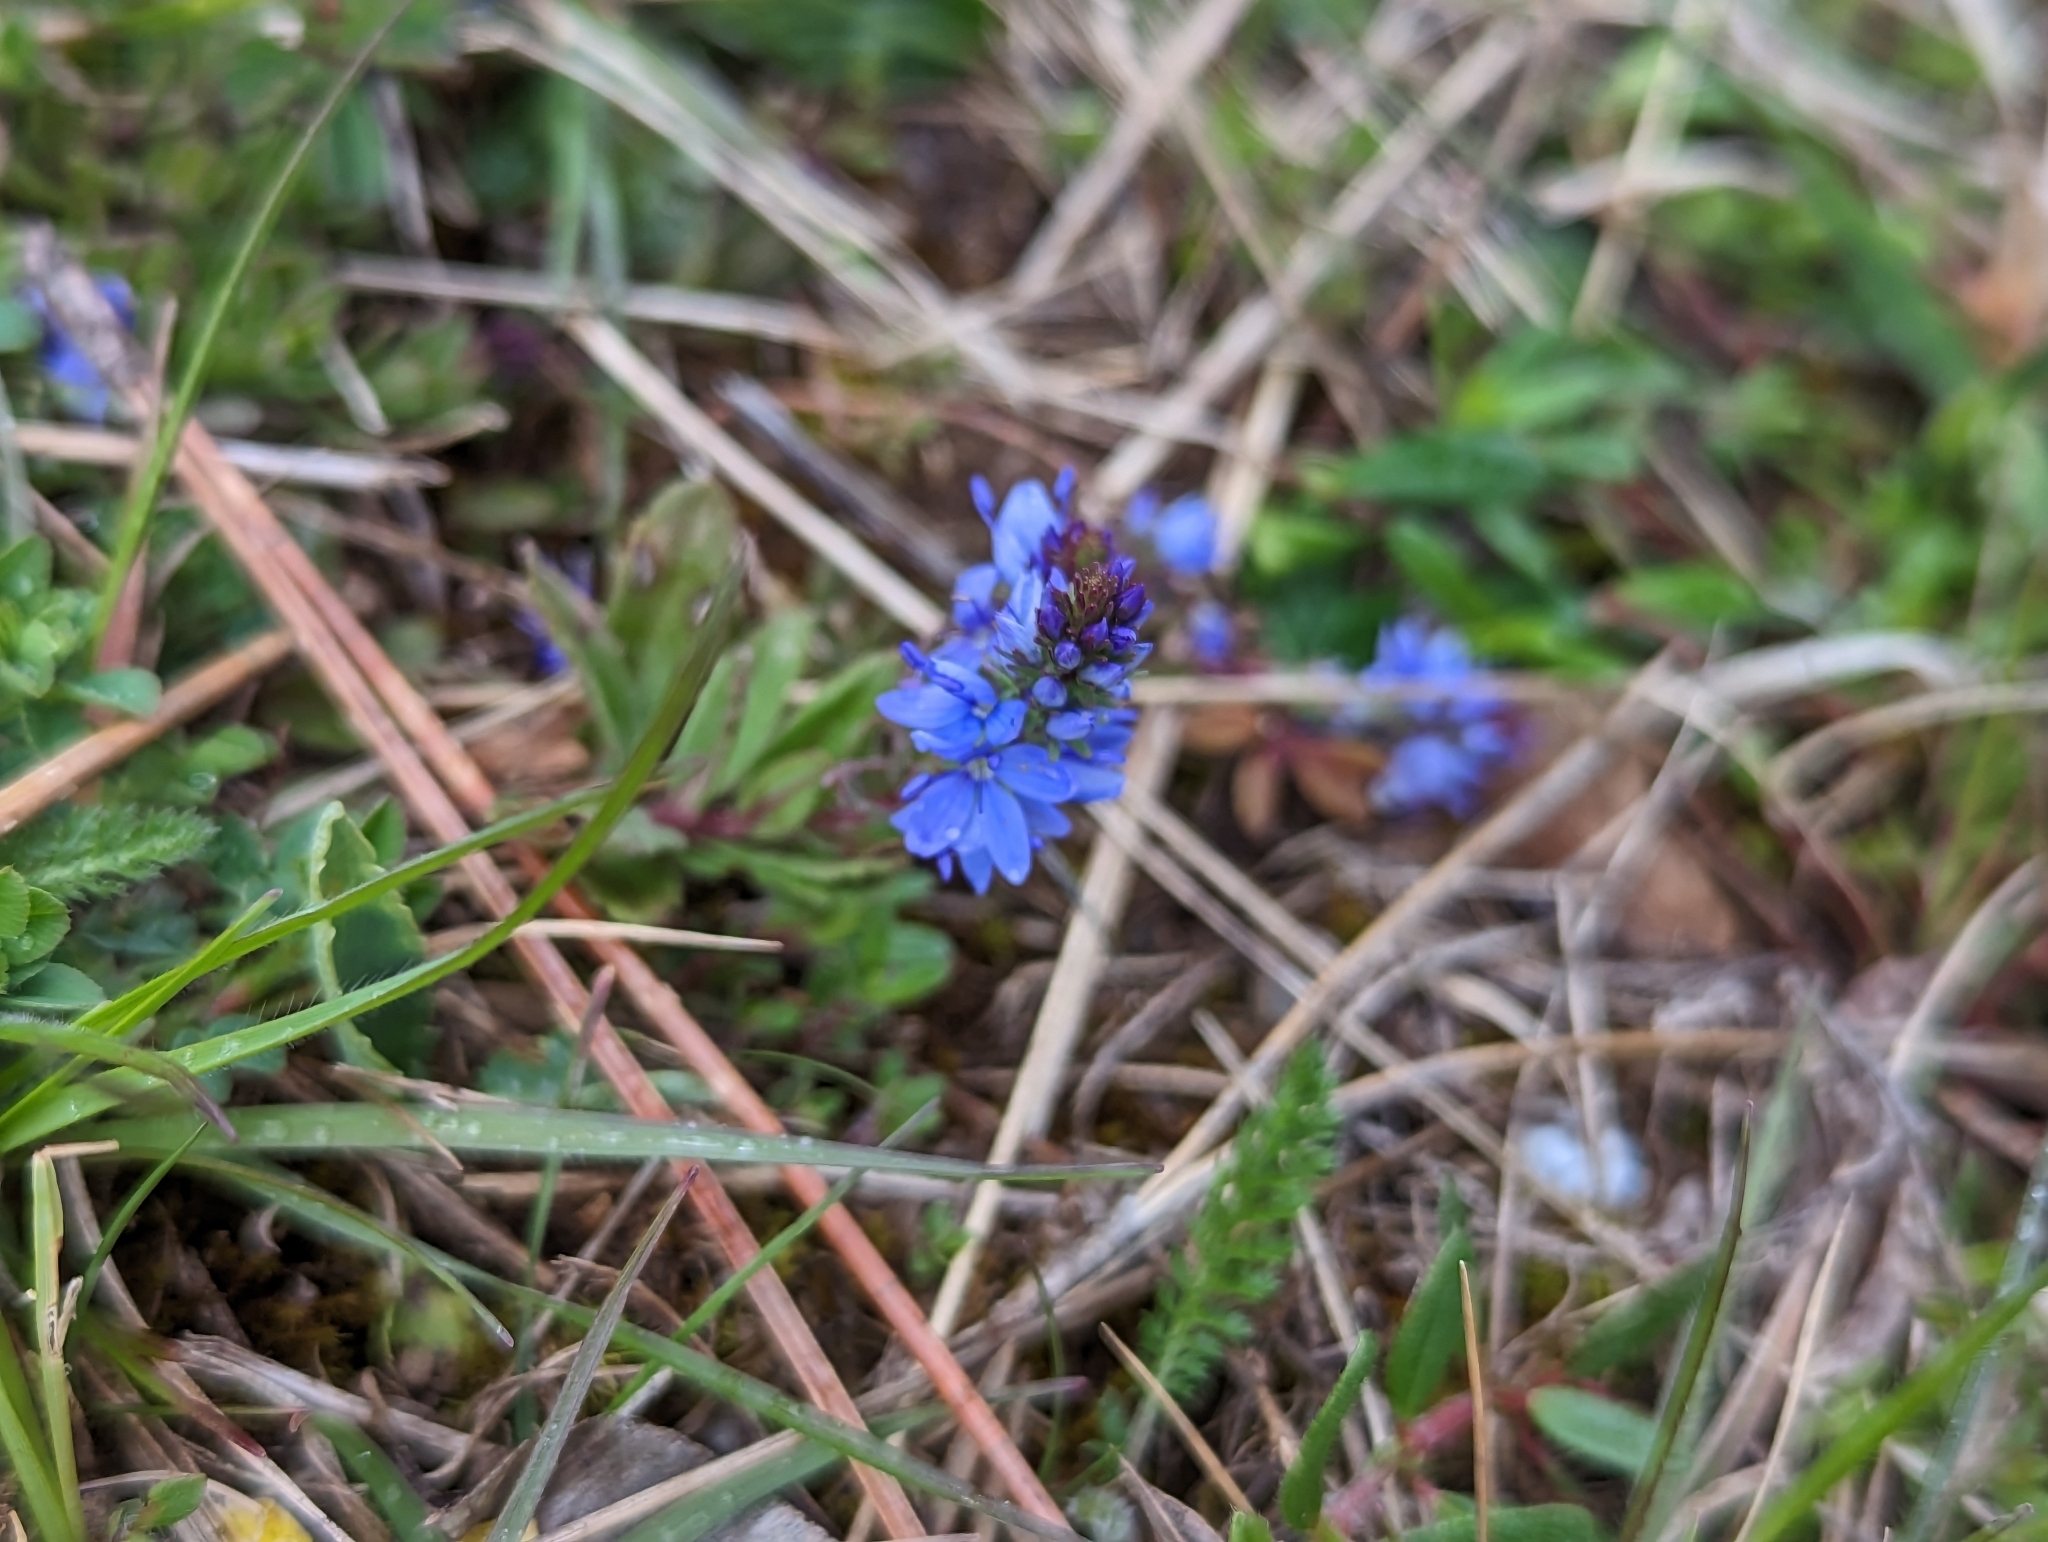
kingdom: Plantae
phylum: Tracheophyta
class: Magnoliopsida
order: Lamiales
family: Plantaginaceae
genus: Veronica
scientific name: Veronica prostrata
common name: Prostrate speedwell
